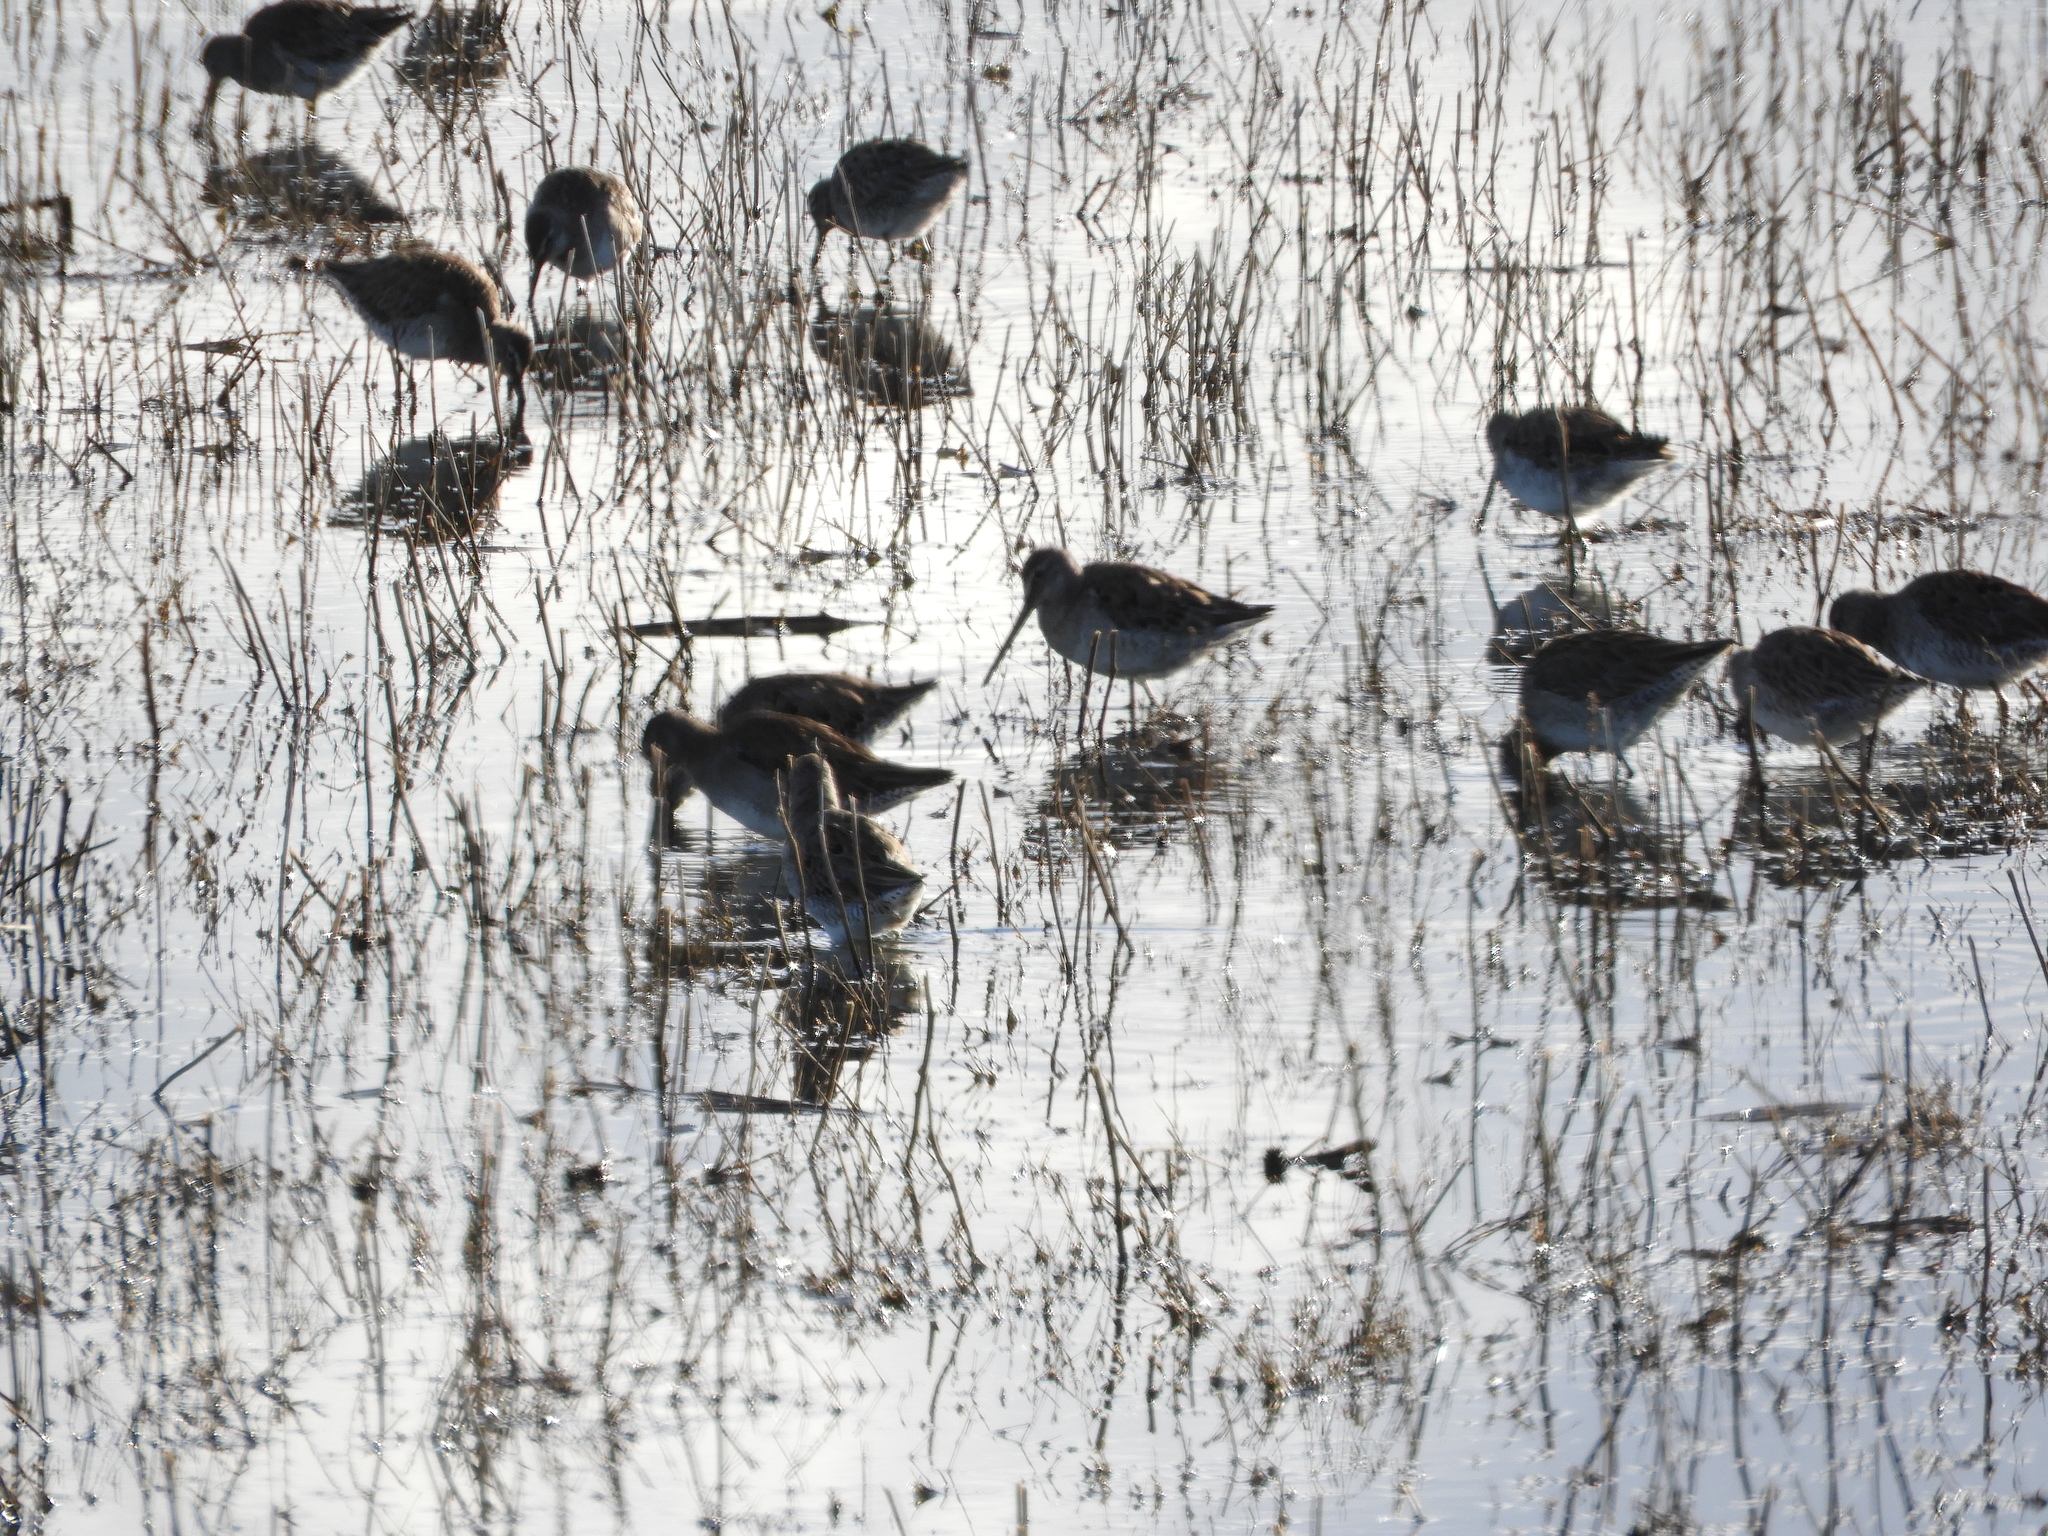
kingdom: Animalia
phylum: Chordata
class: Aves
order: Charadriiformes
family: Scolopacidae
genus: Limnodromus
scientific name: Limnodromus scolopaceus
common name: Long-billed dowitcher
